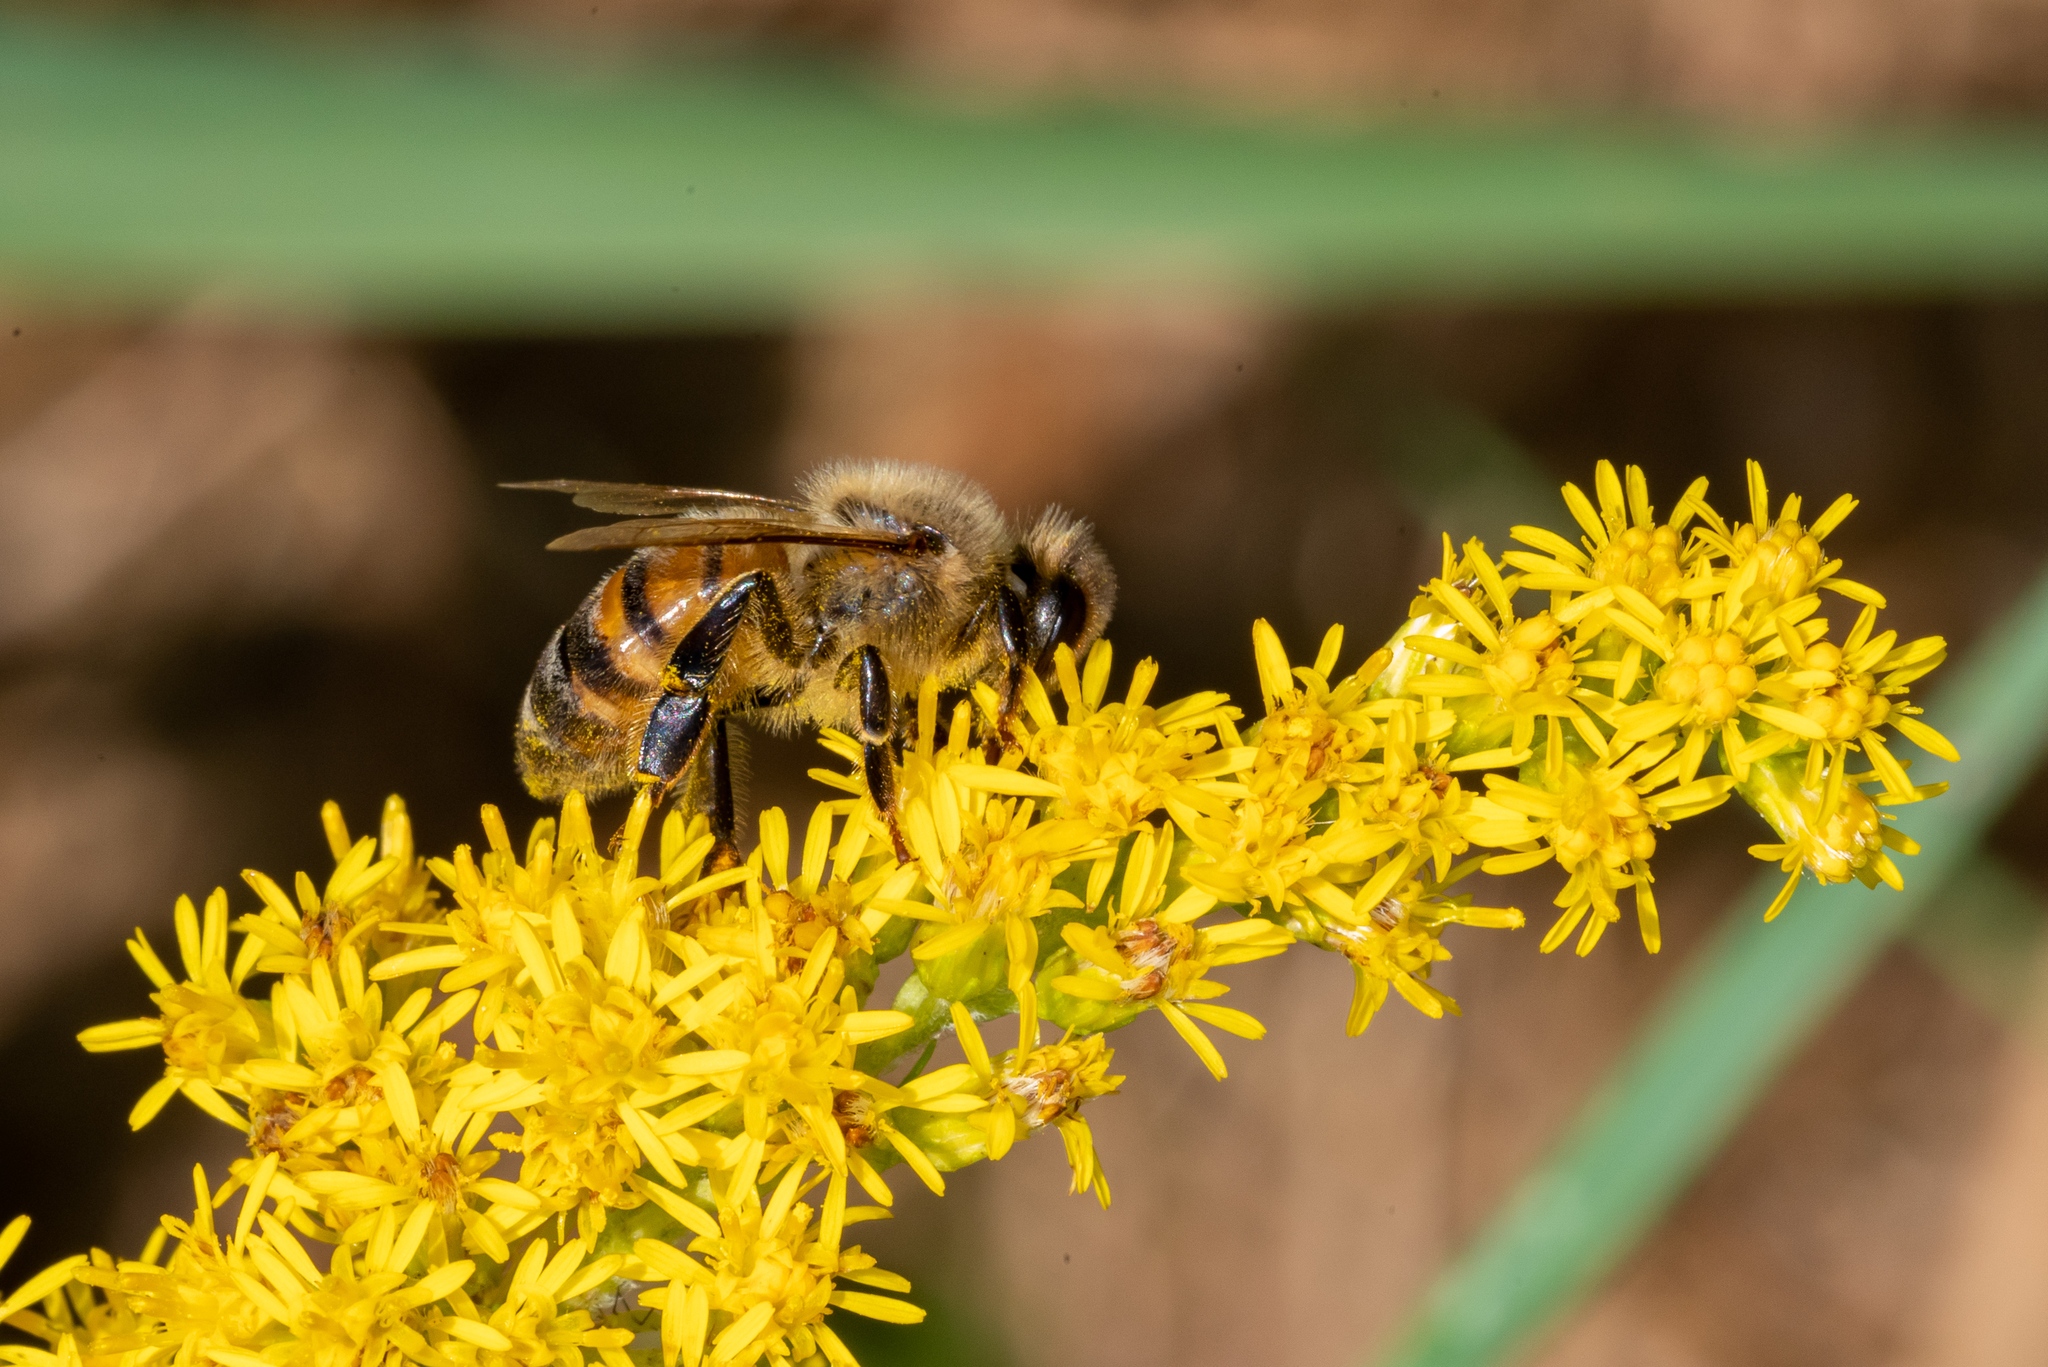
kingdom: Animalia
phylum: Arthropoda
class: Insecta
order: Hymenoptera
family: Apidae
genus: Apis
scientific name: Apis mellifera
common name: Honey bee
